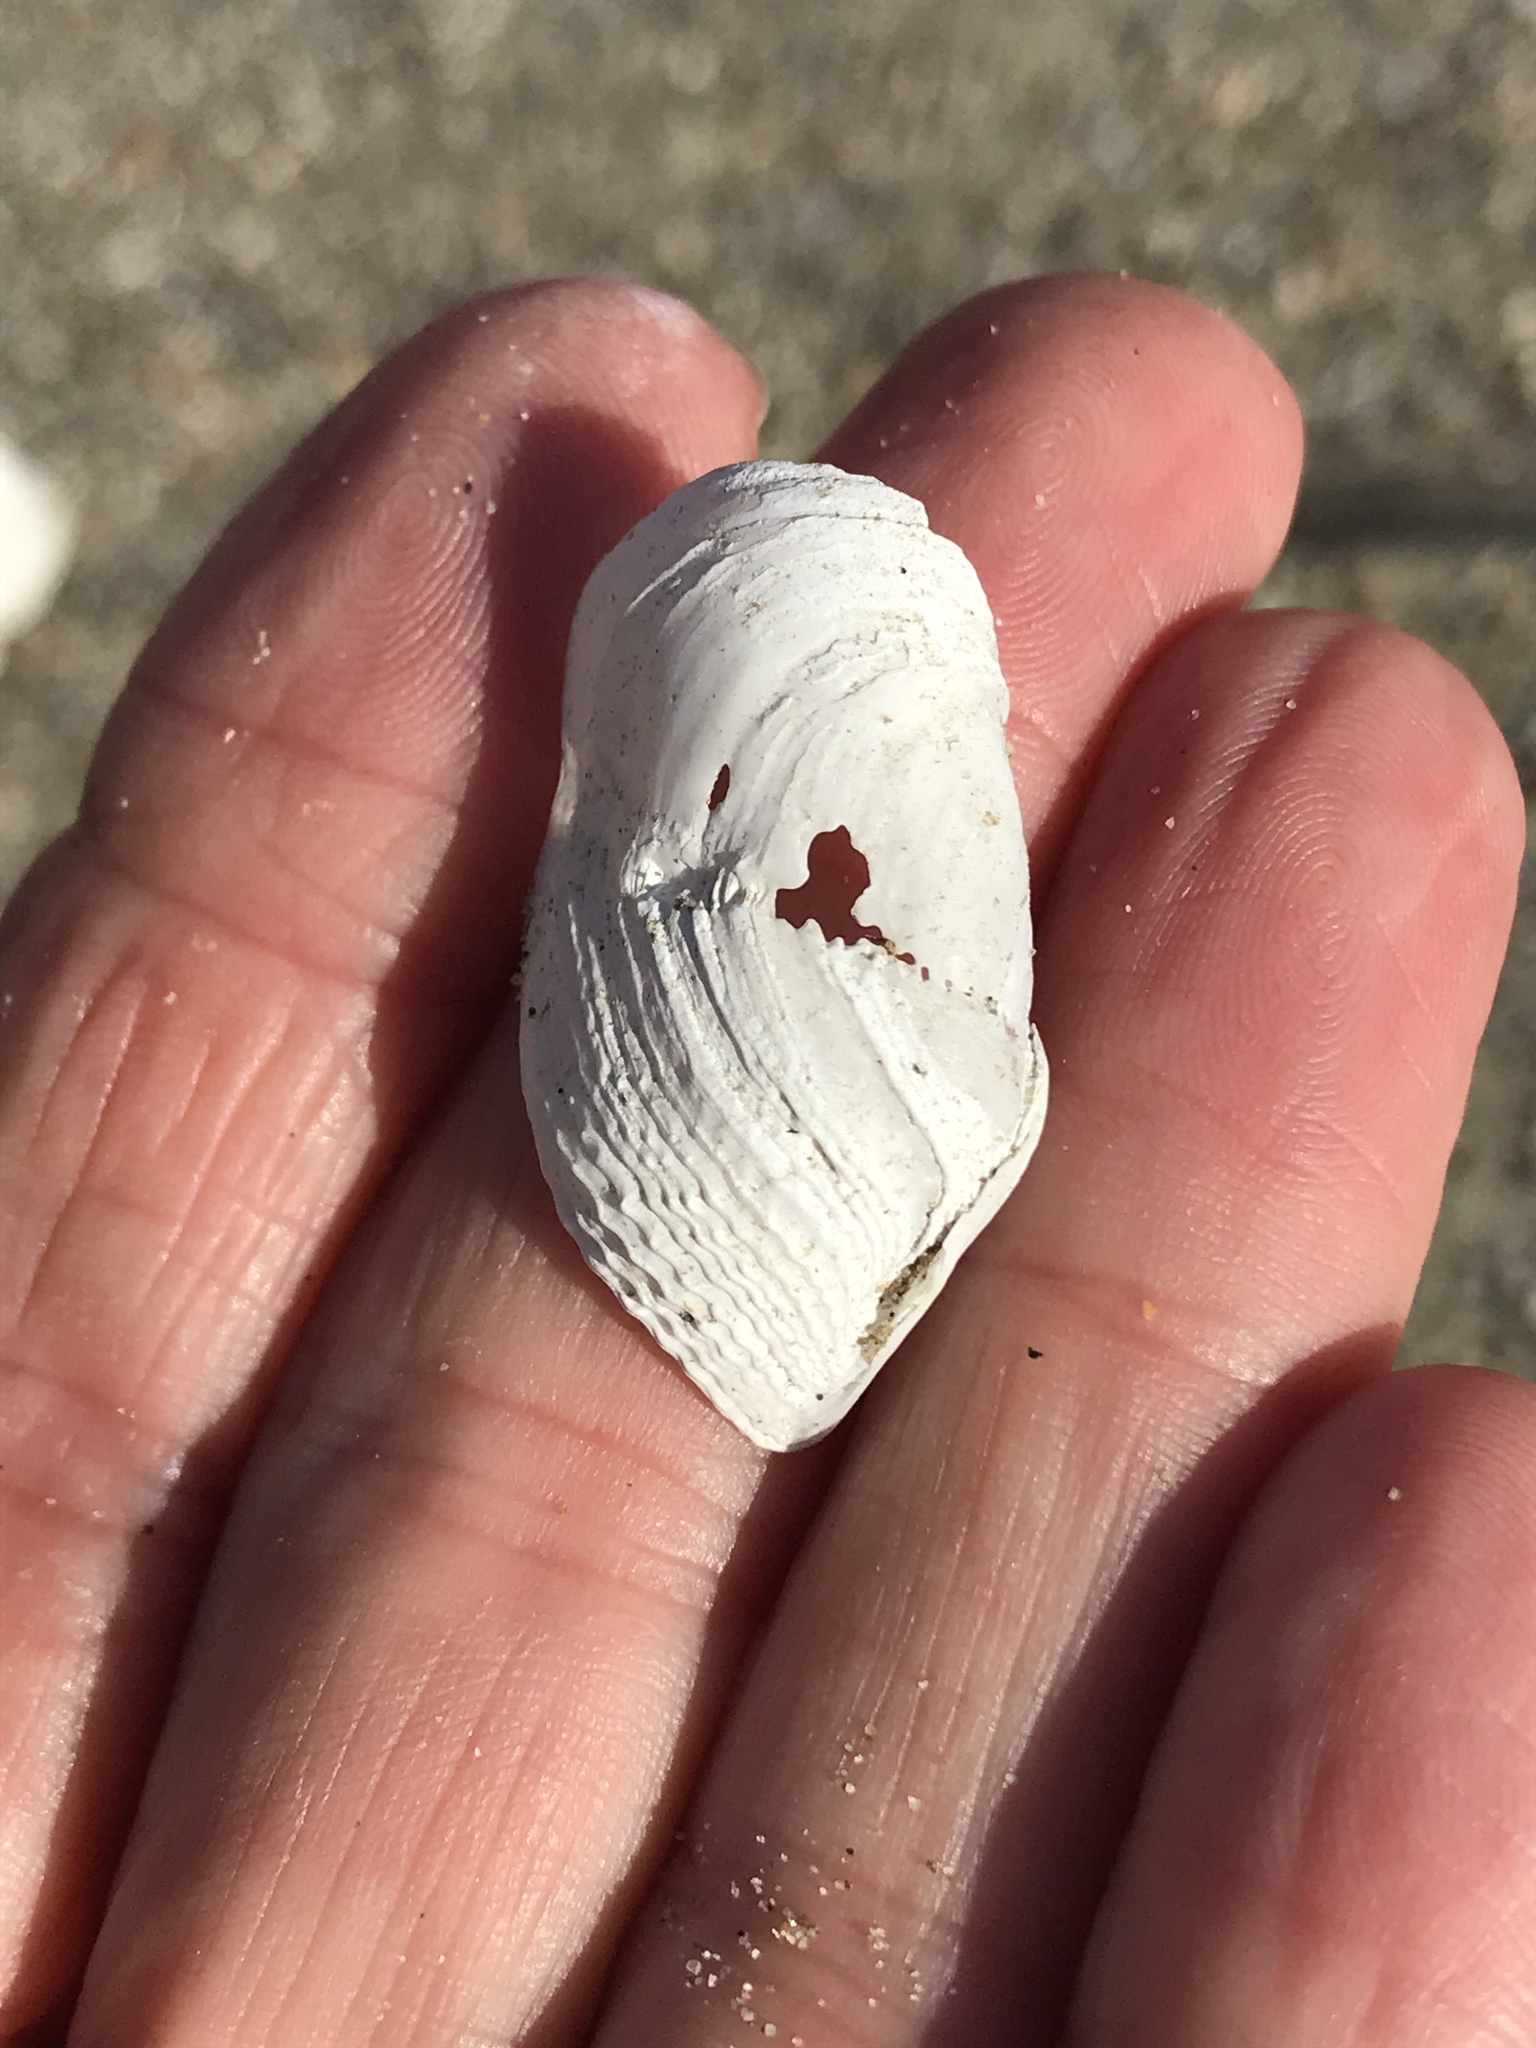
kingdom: Animalia
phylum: Mollusca
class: Bivalvia
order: Myida
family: Pholadidae
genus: Zirfaea
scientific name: Zirfaea pilsbryi
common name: Rough piddock
